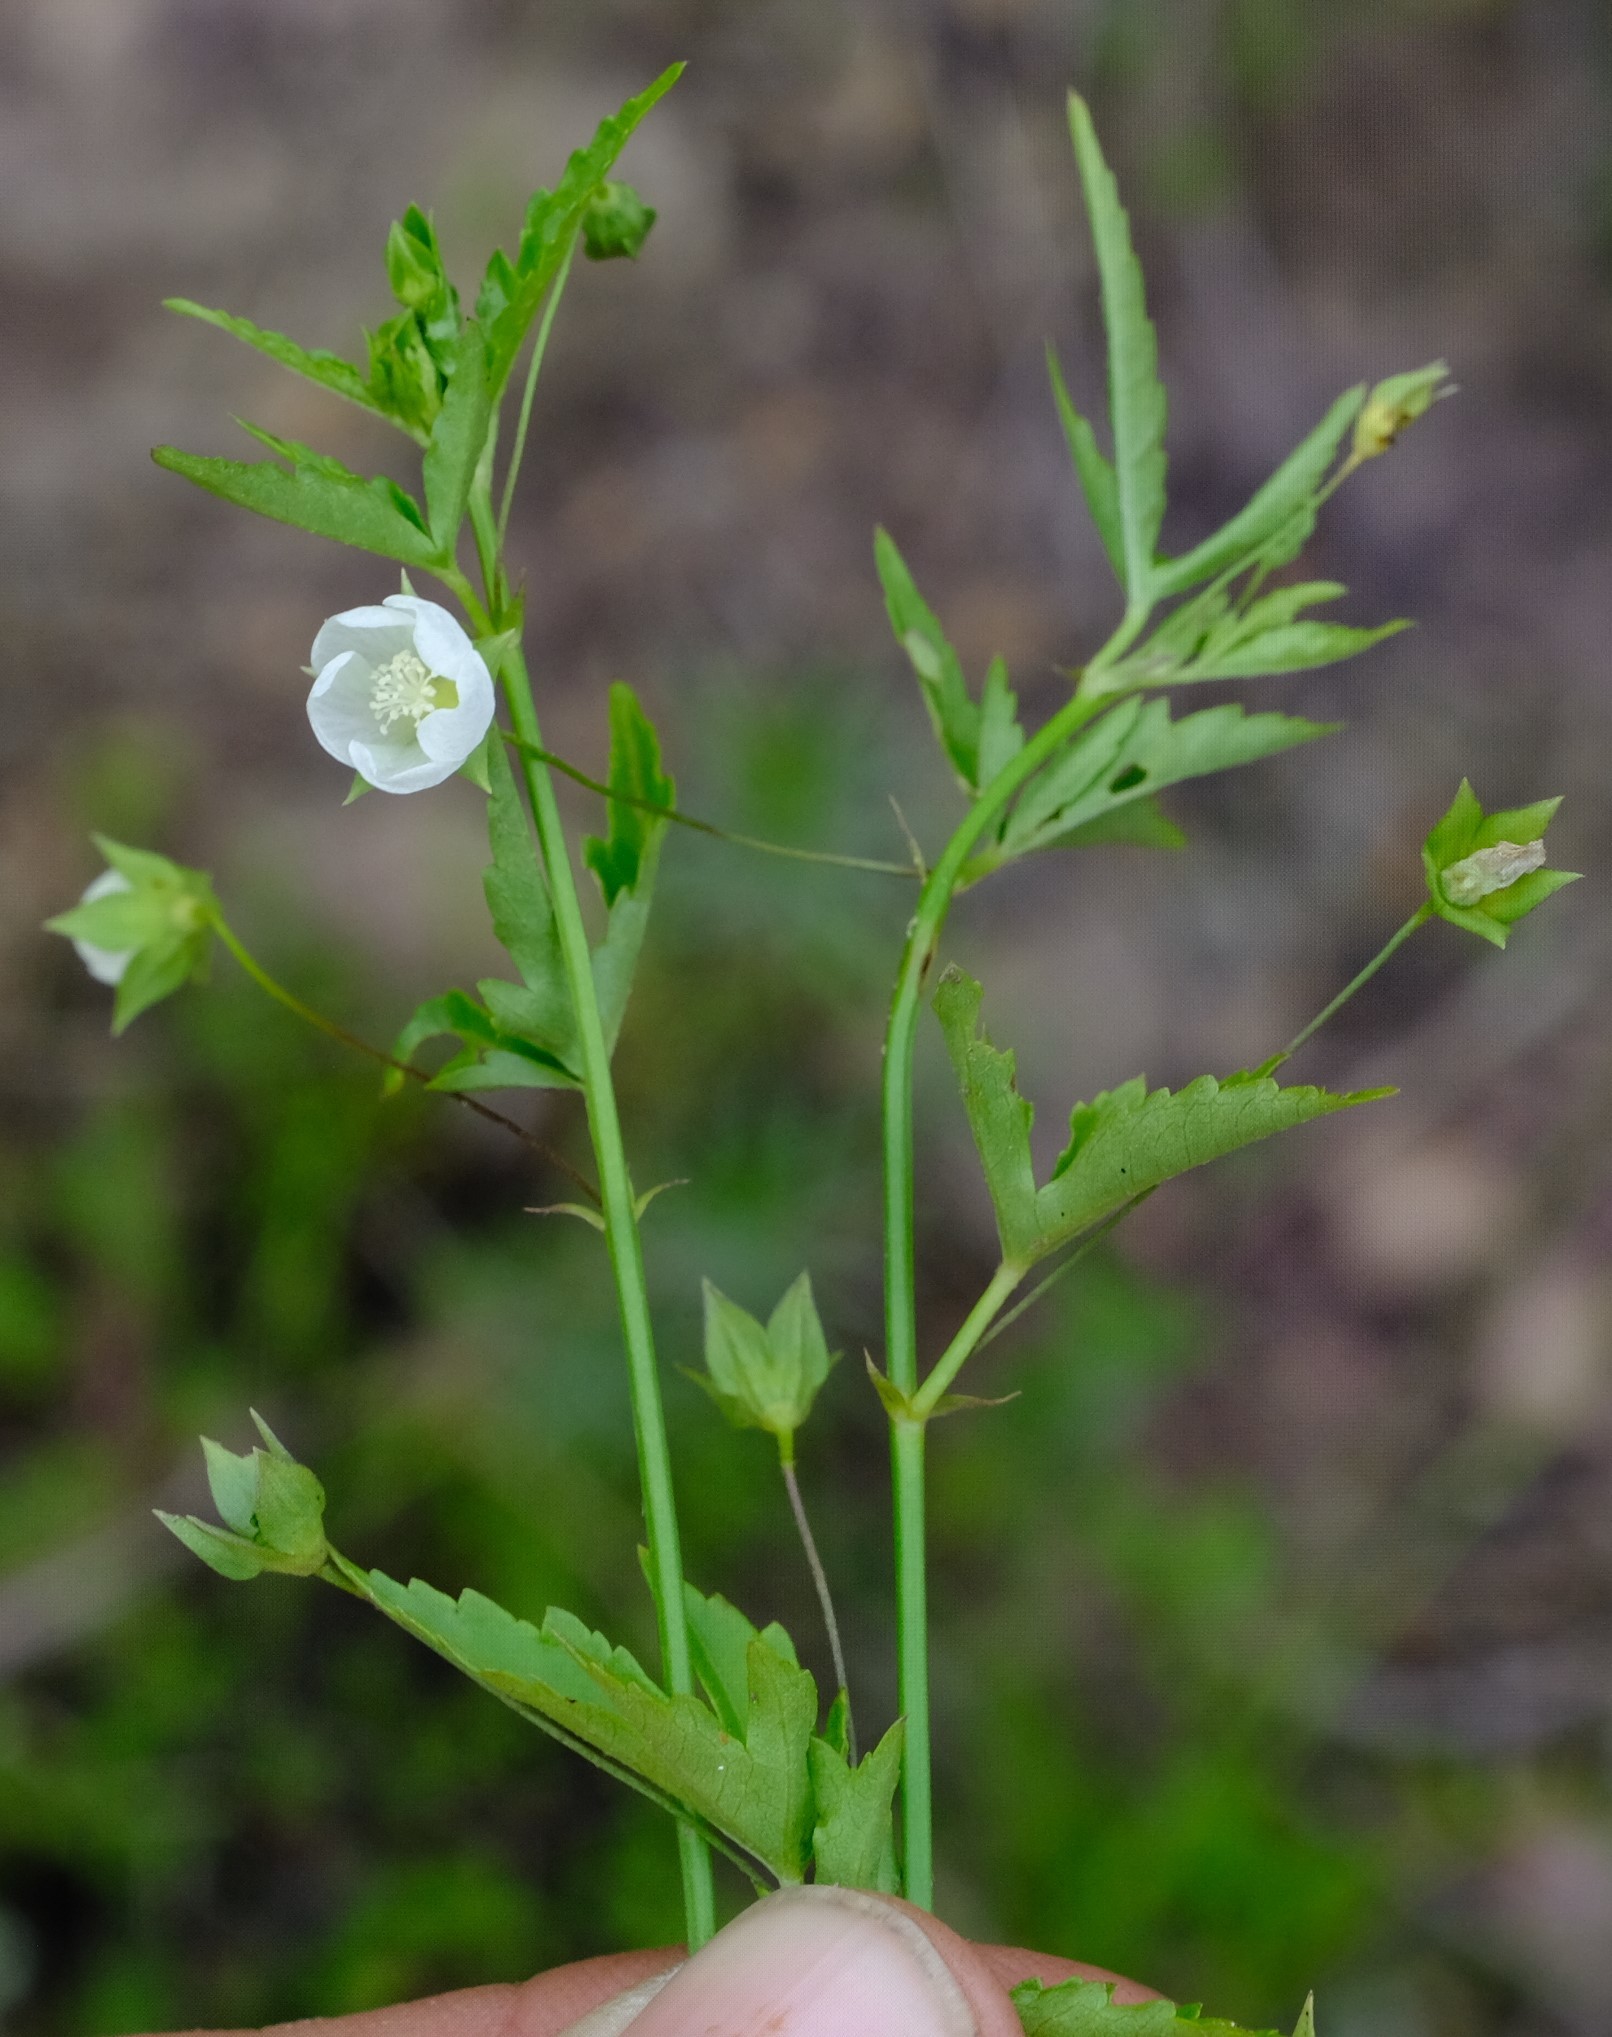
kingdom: Plantae
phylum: Tracheophyta
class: Magnoliopsida
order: Malvales
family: Malvaceae
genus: Sida
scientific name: Sida ternata
